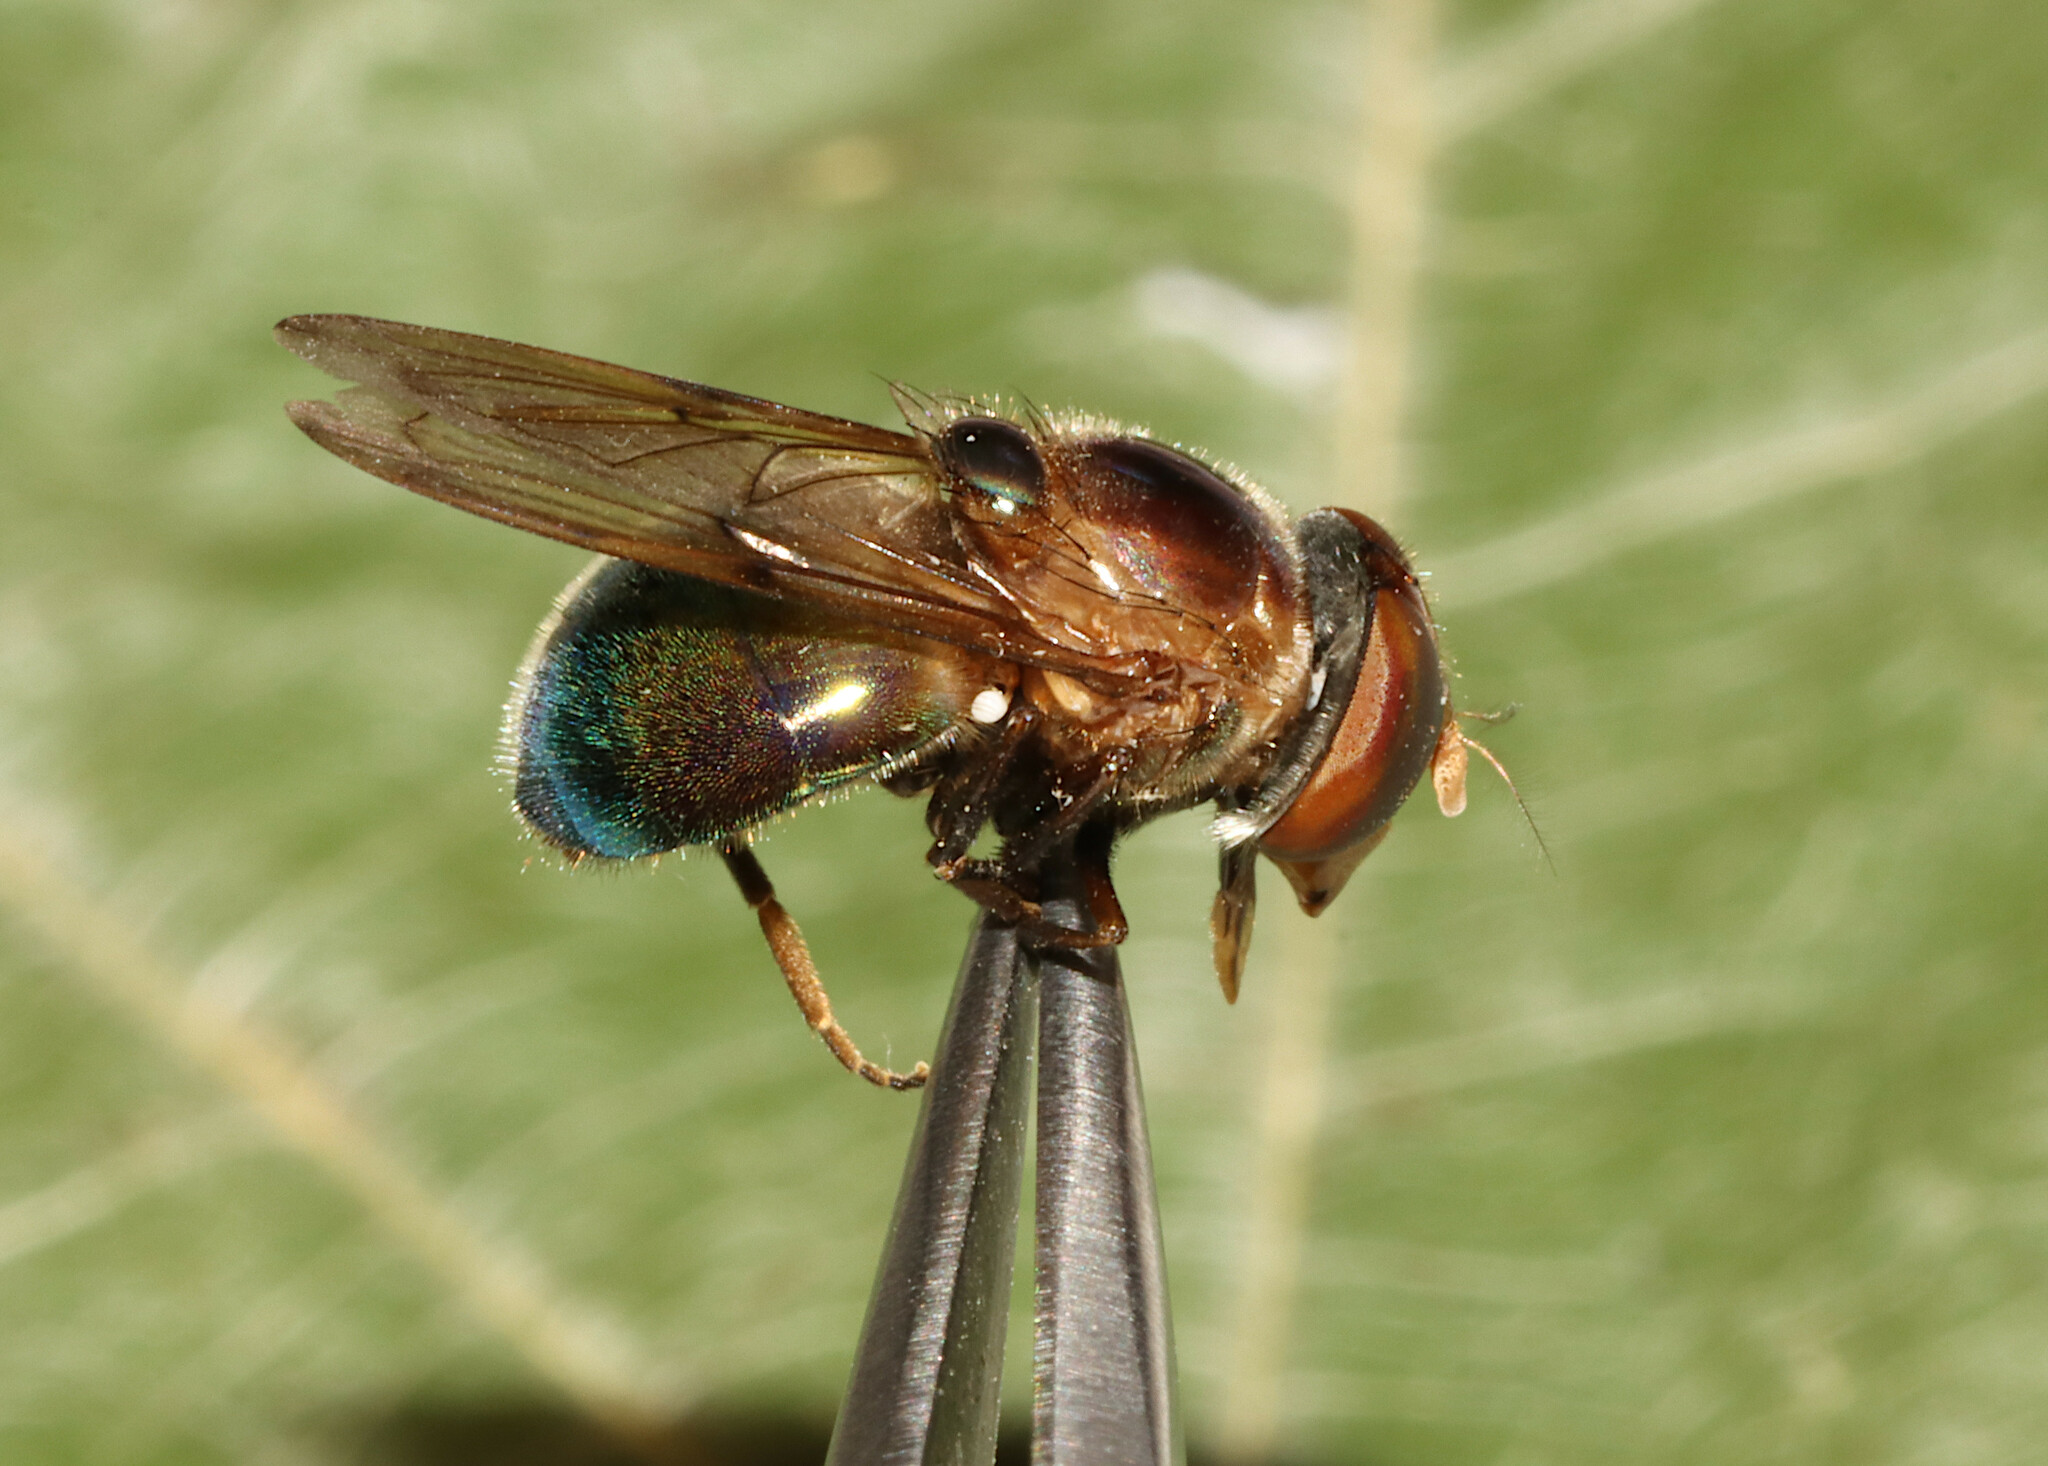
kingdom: Animalia
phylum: Arthropoda
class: Insecta
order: Diptera
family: Syrphidae
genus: Copestylum
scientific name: Copestylum vesicularium
